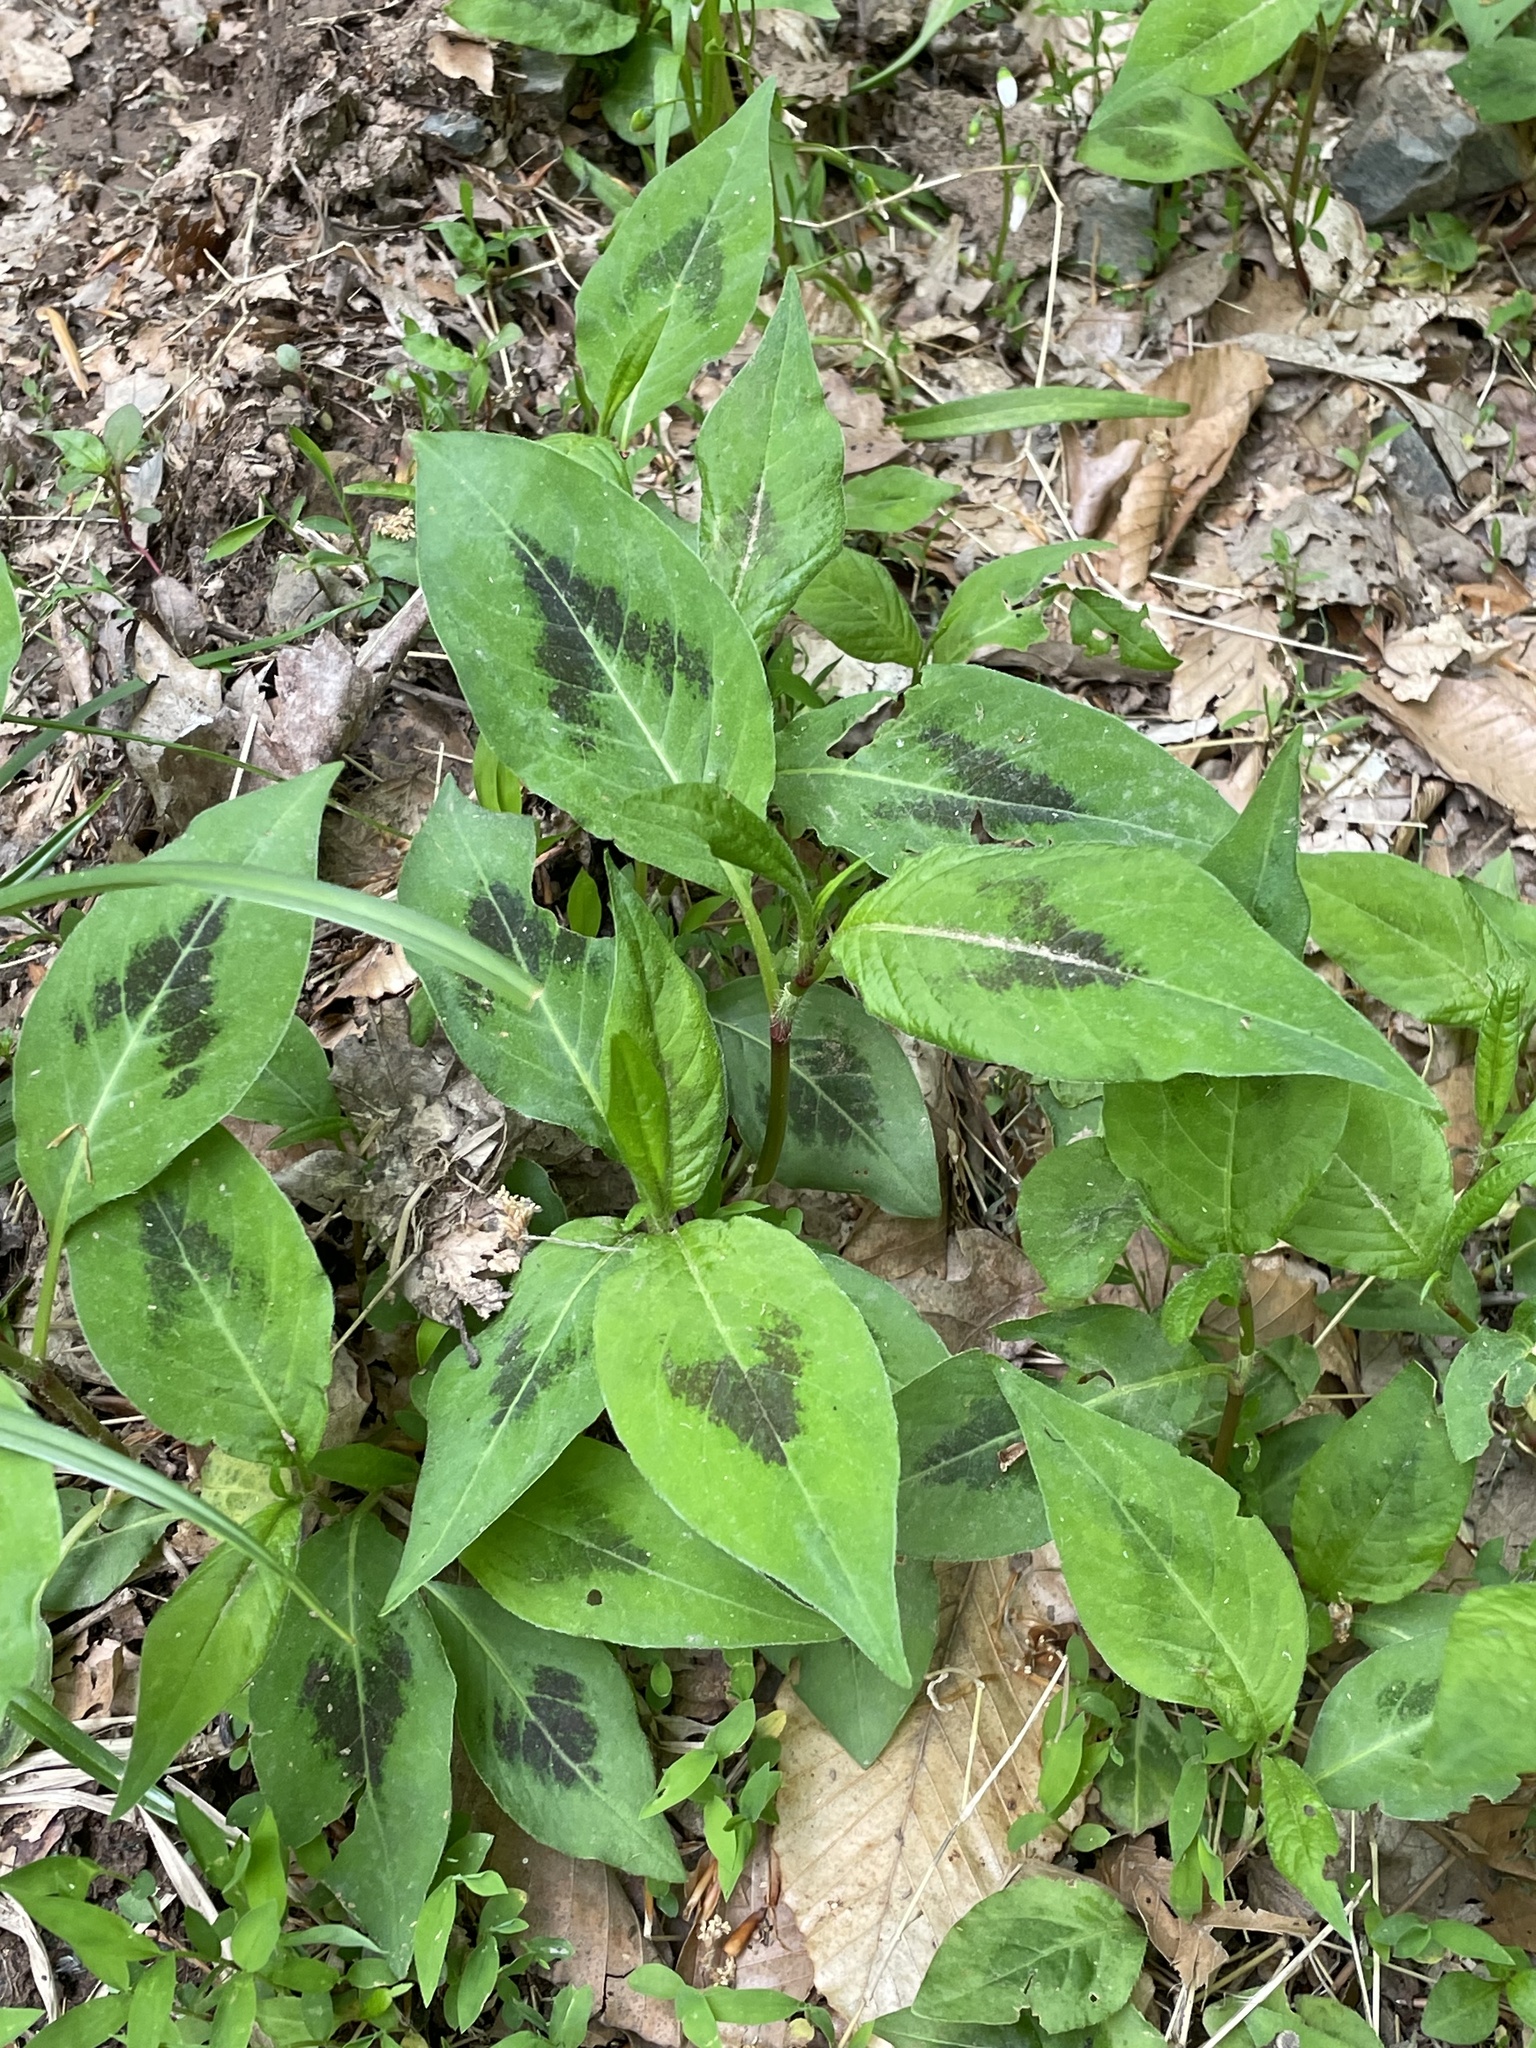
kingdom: Plantae
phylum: Tracheophyta
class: Magnoliopsida
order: Caryophyllales
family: Polygonaceae
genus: Persicaria
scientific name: Persicaria virginiana
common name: Jumpseed
